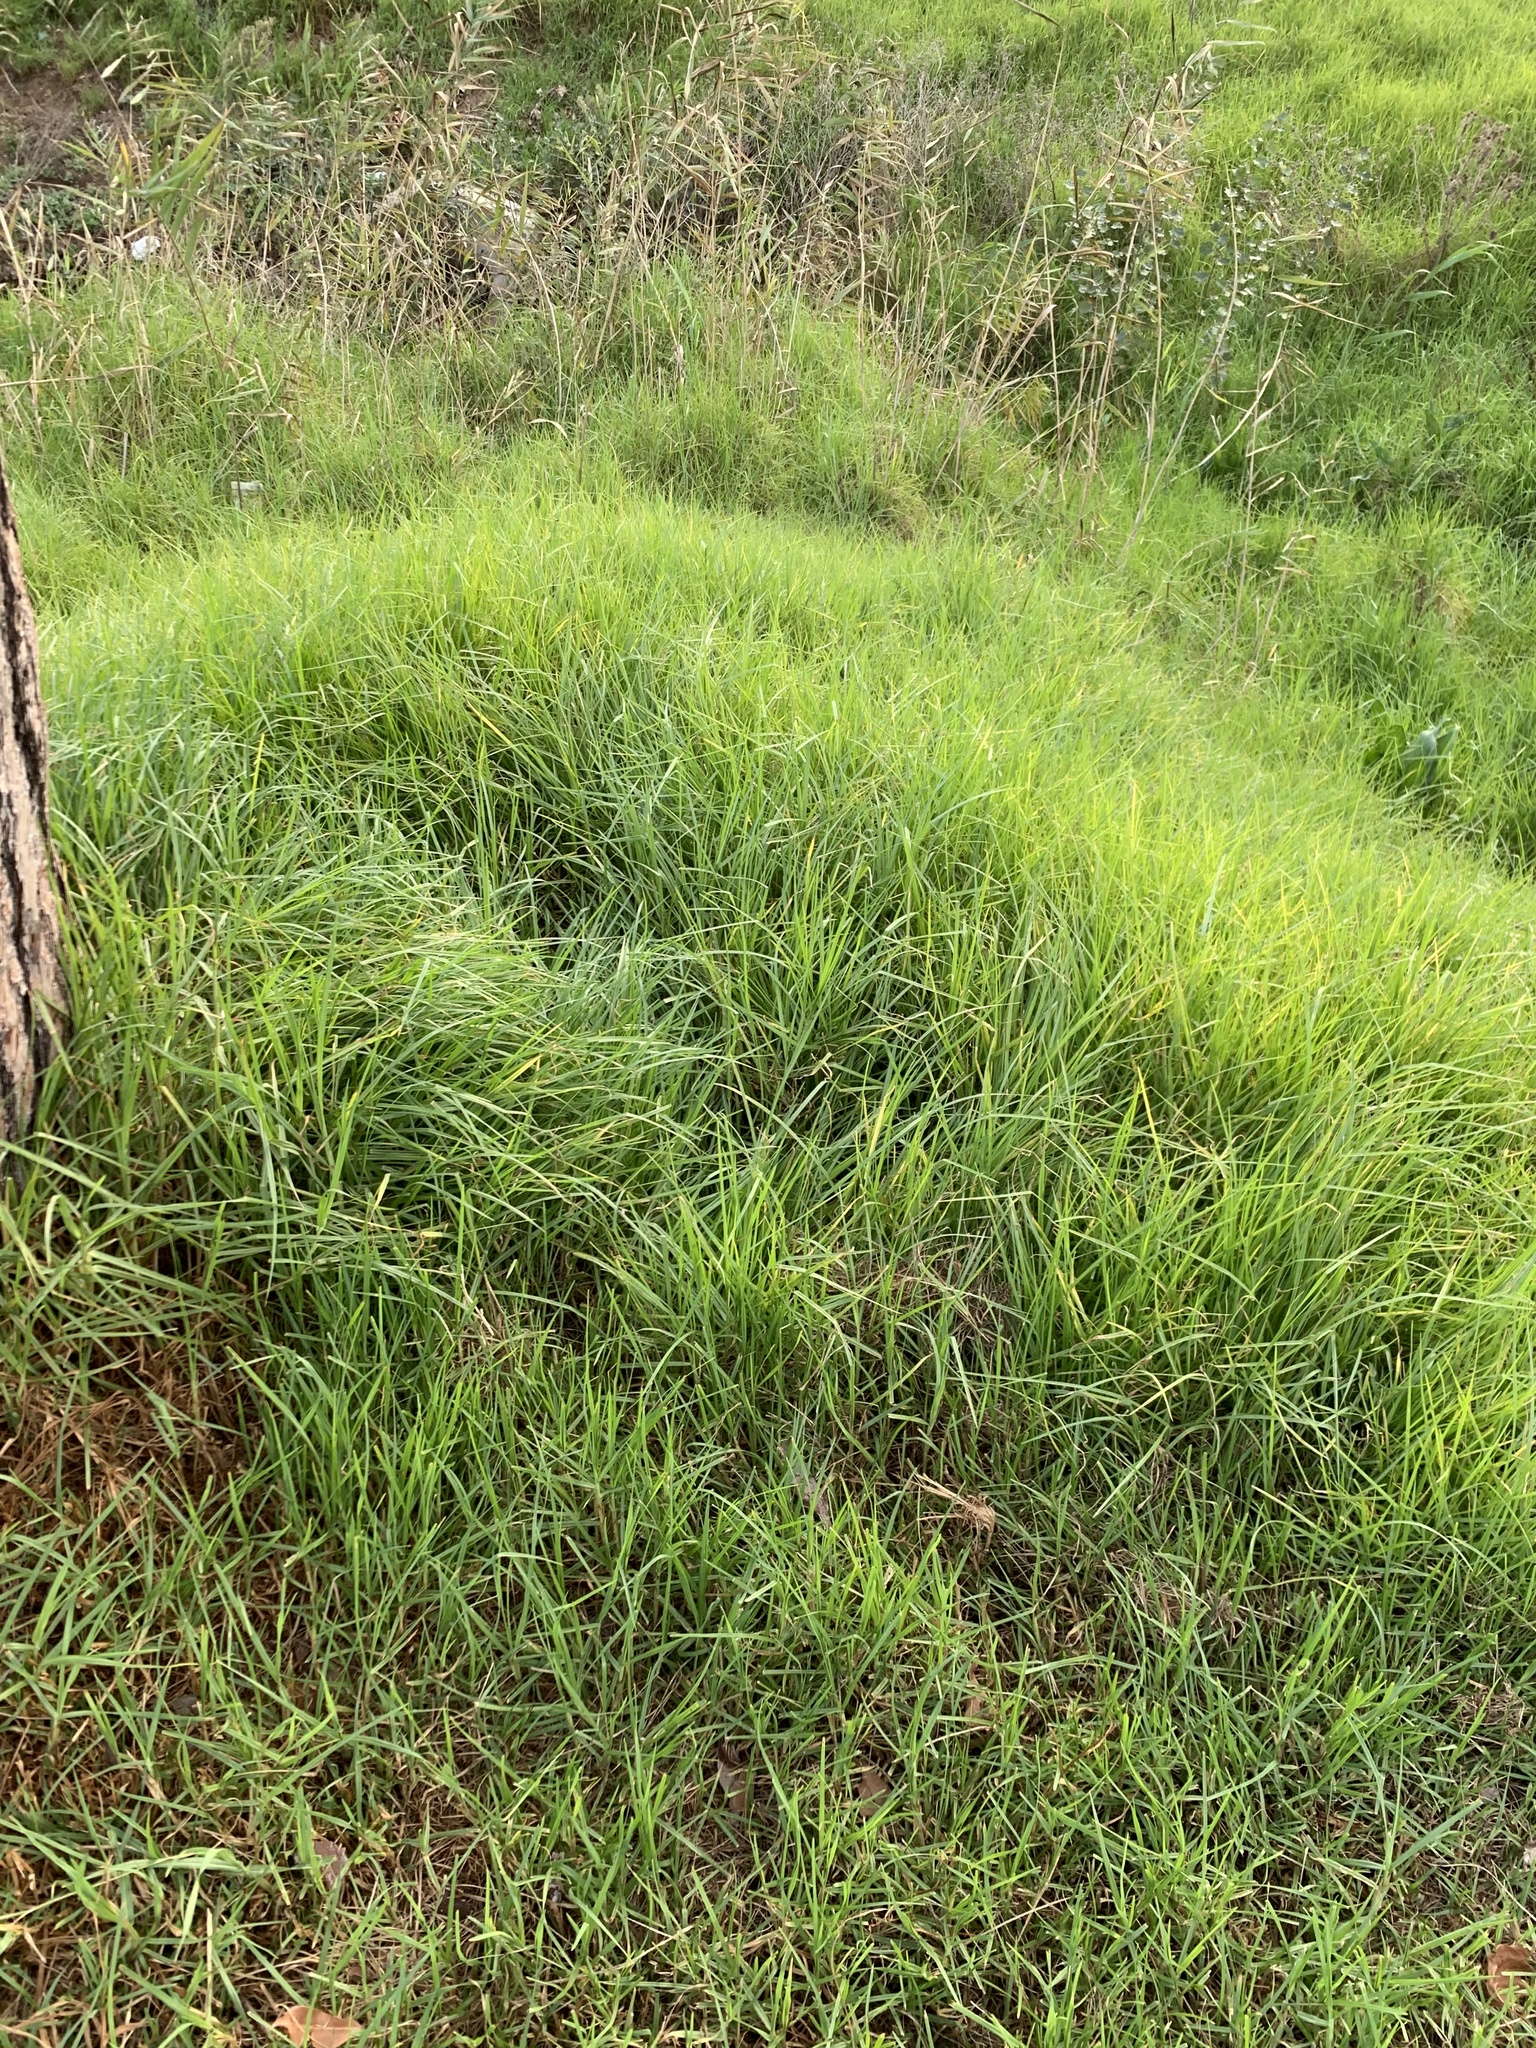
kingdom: Plantae
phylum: Tracheophyta
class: Liliopsida
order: Poales
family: Poaceae
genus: Cenchrus
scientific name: Cenchrus clandestinus
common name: Kikuyugrass
